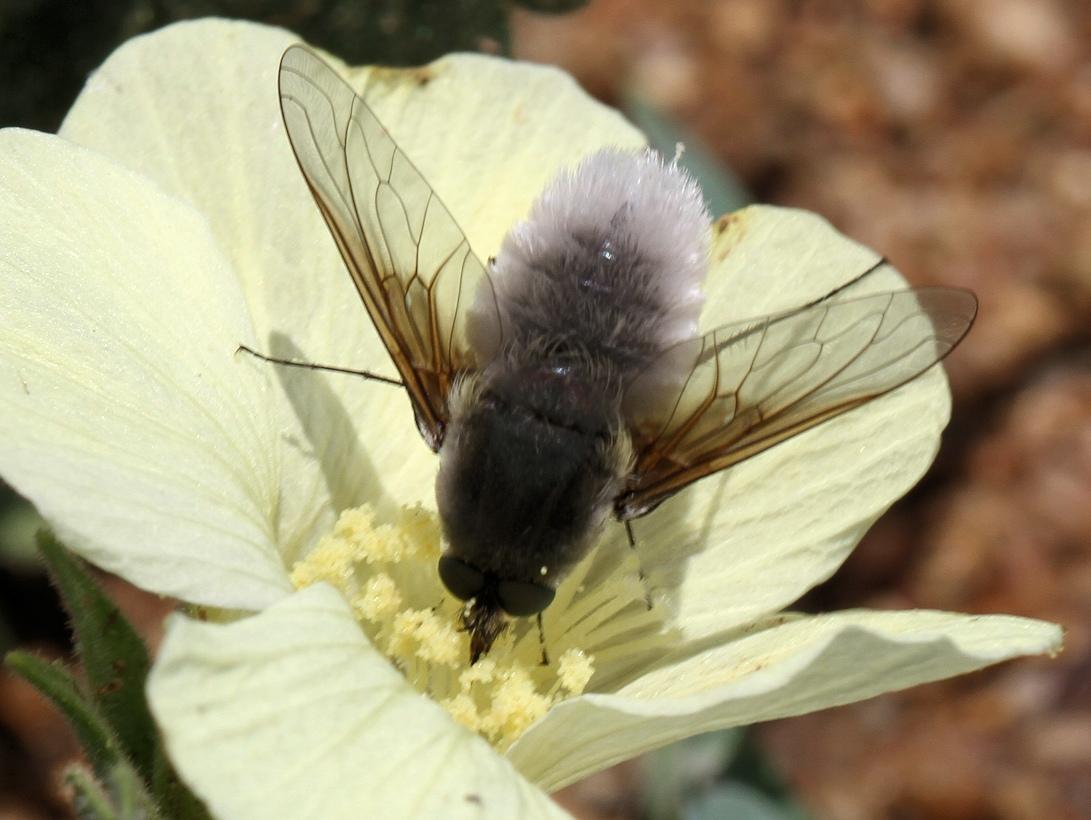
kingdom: Plantae
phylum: Tracheophyta
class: Magnoliopsida
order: Malvales
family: Malvaceae
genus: Pavonia
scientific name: Pavonia burchellii
